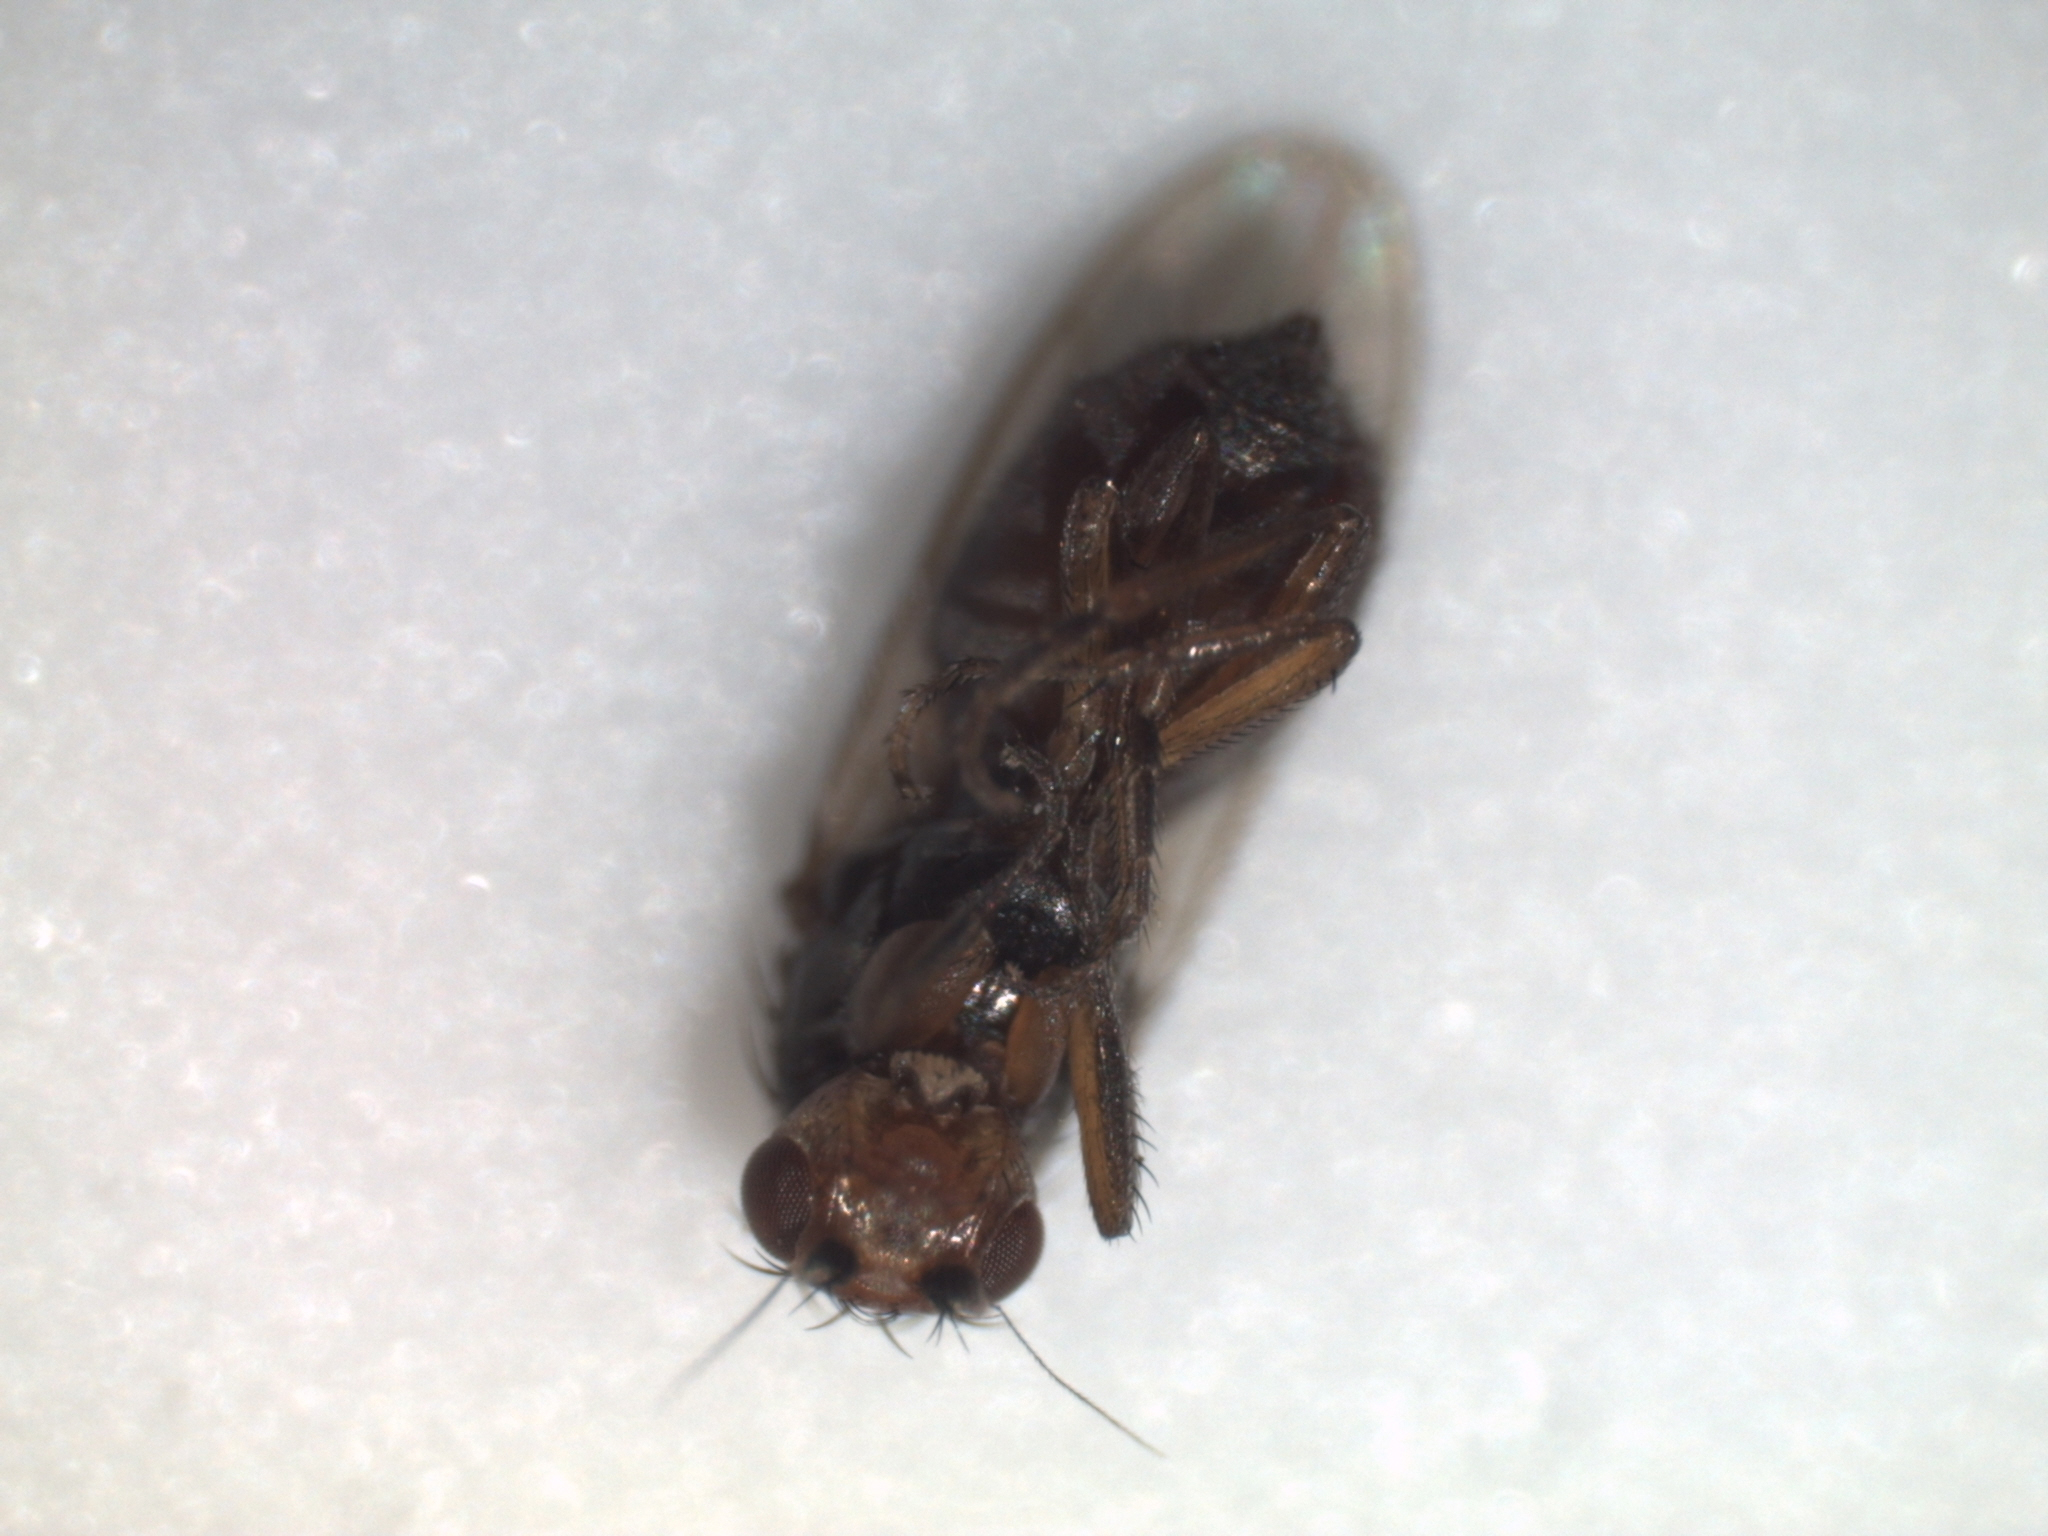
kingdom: Animalia
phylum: Arthropoda
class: Insecta
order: Diptera
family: Sphaeroceridae
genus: Spelobia
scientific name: Spelobia ochripes
